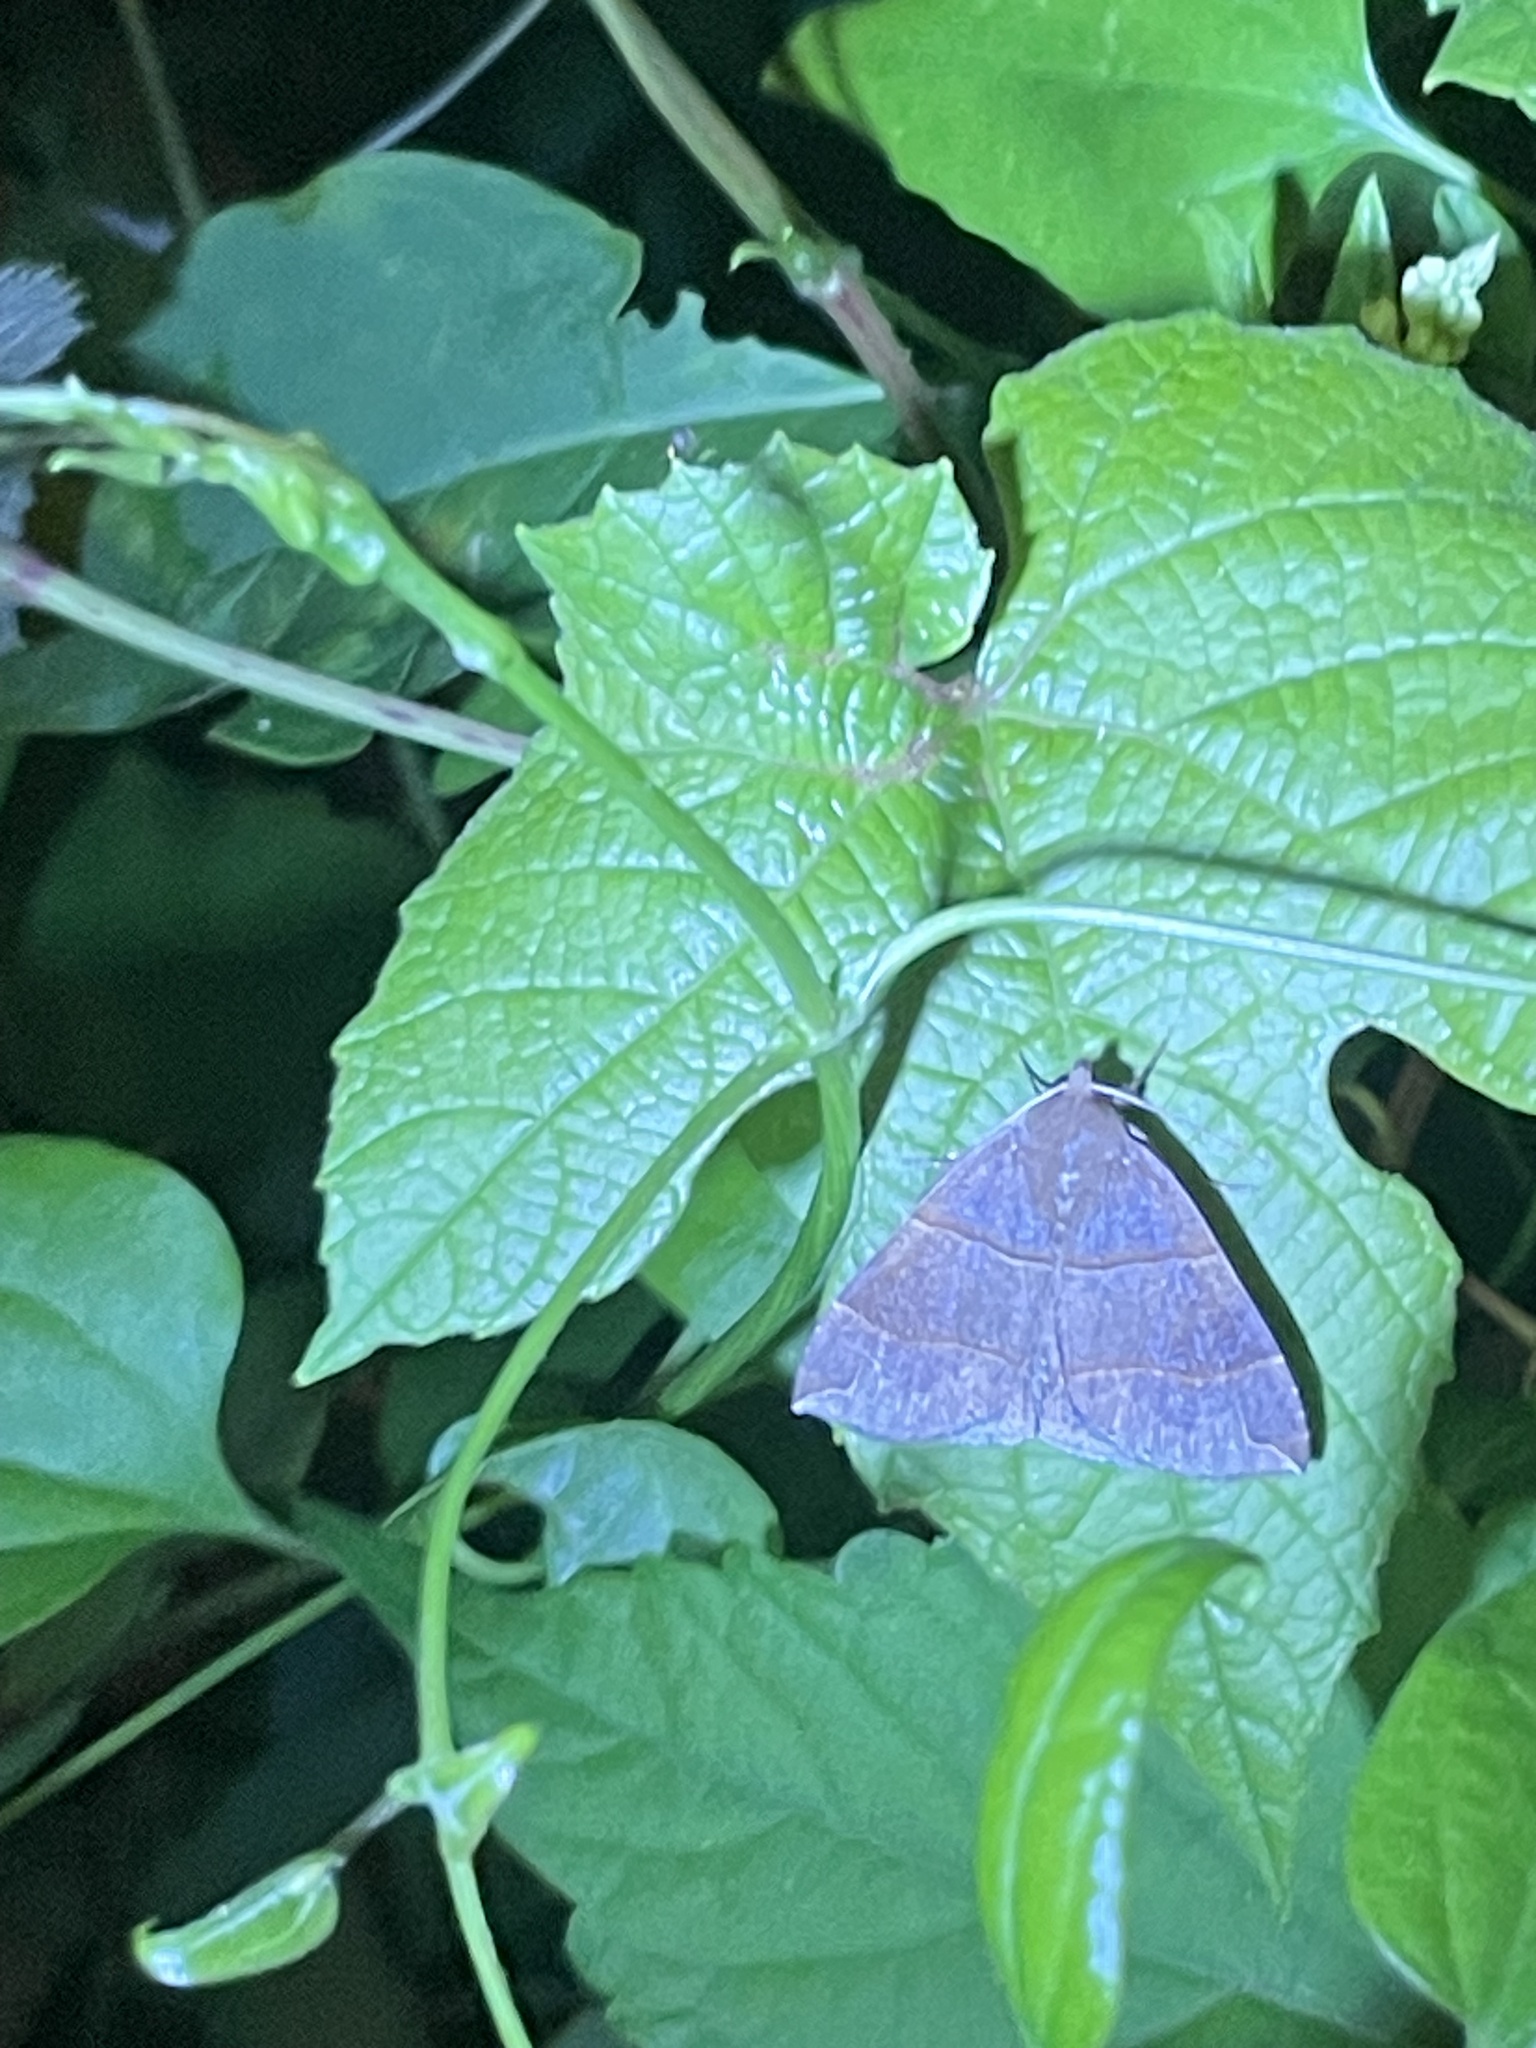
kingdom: Animalia
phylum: Arthropoda
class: Insecta
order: Lepidoptera
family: Erebidae
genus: Parallelia
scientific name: Parallelia bistriaris
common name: Maple looper moth
